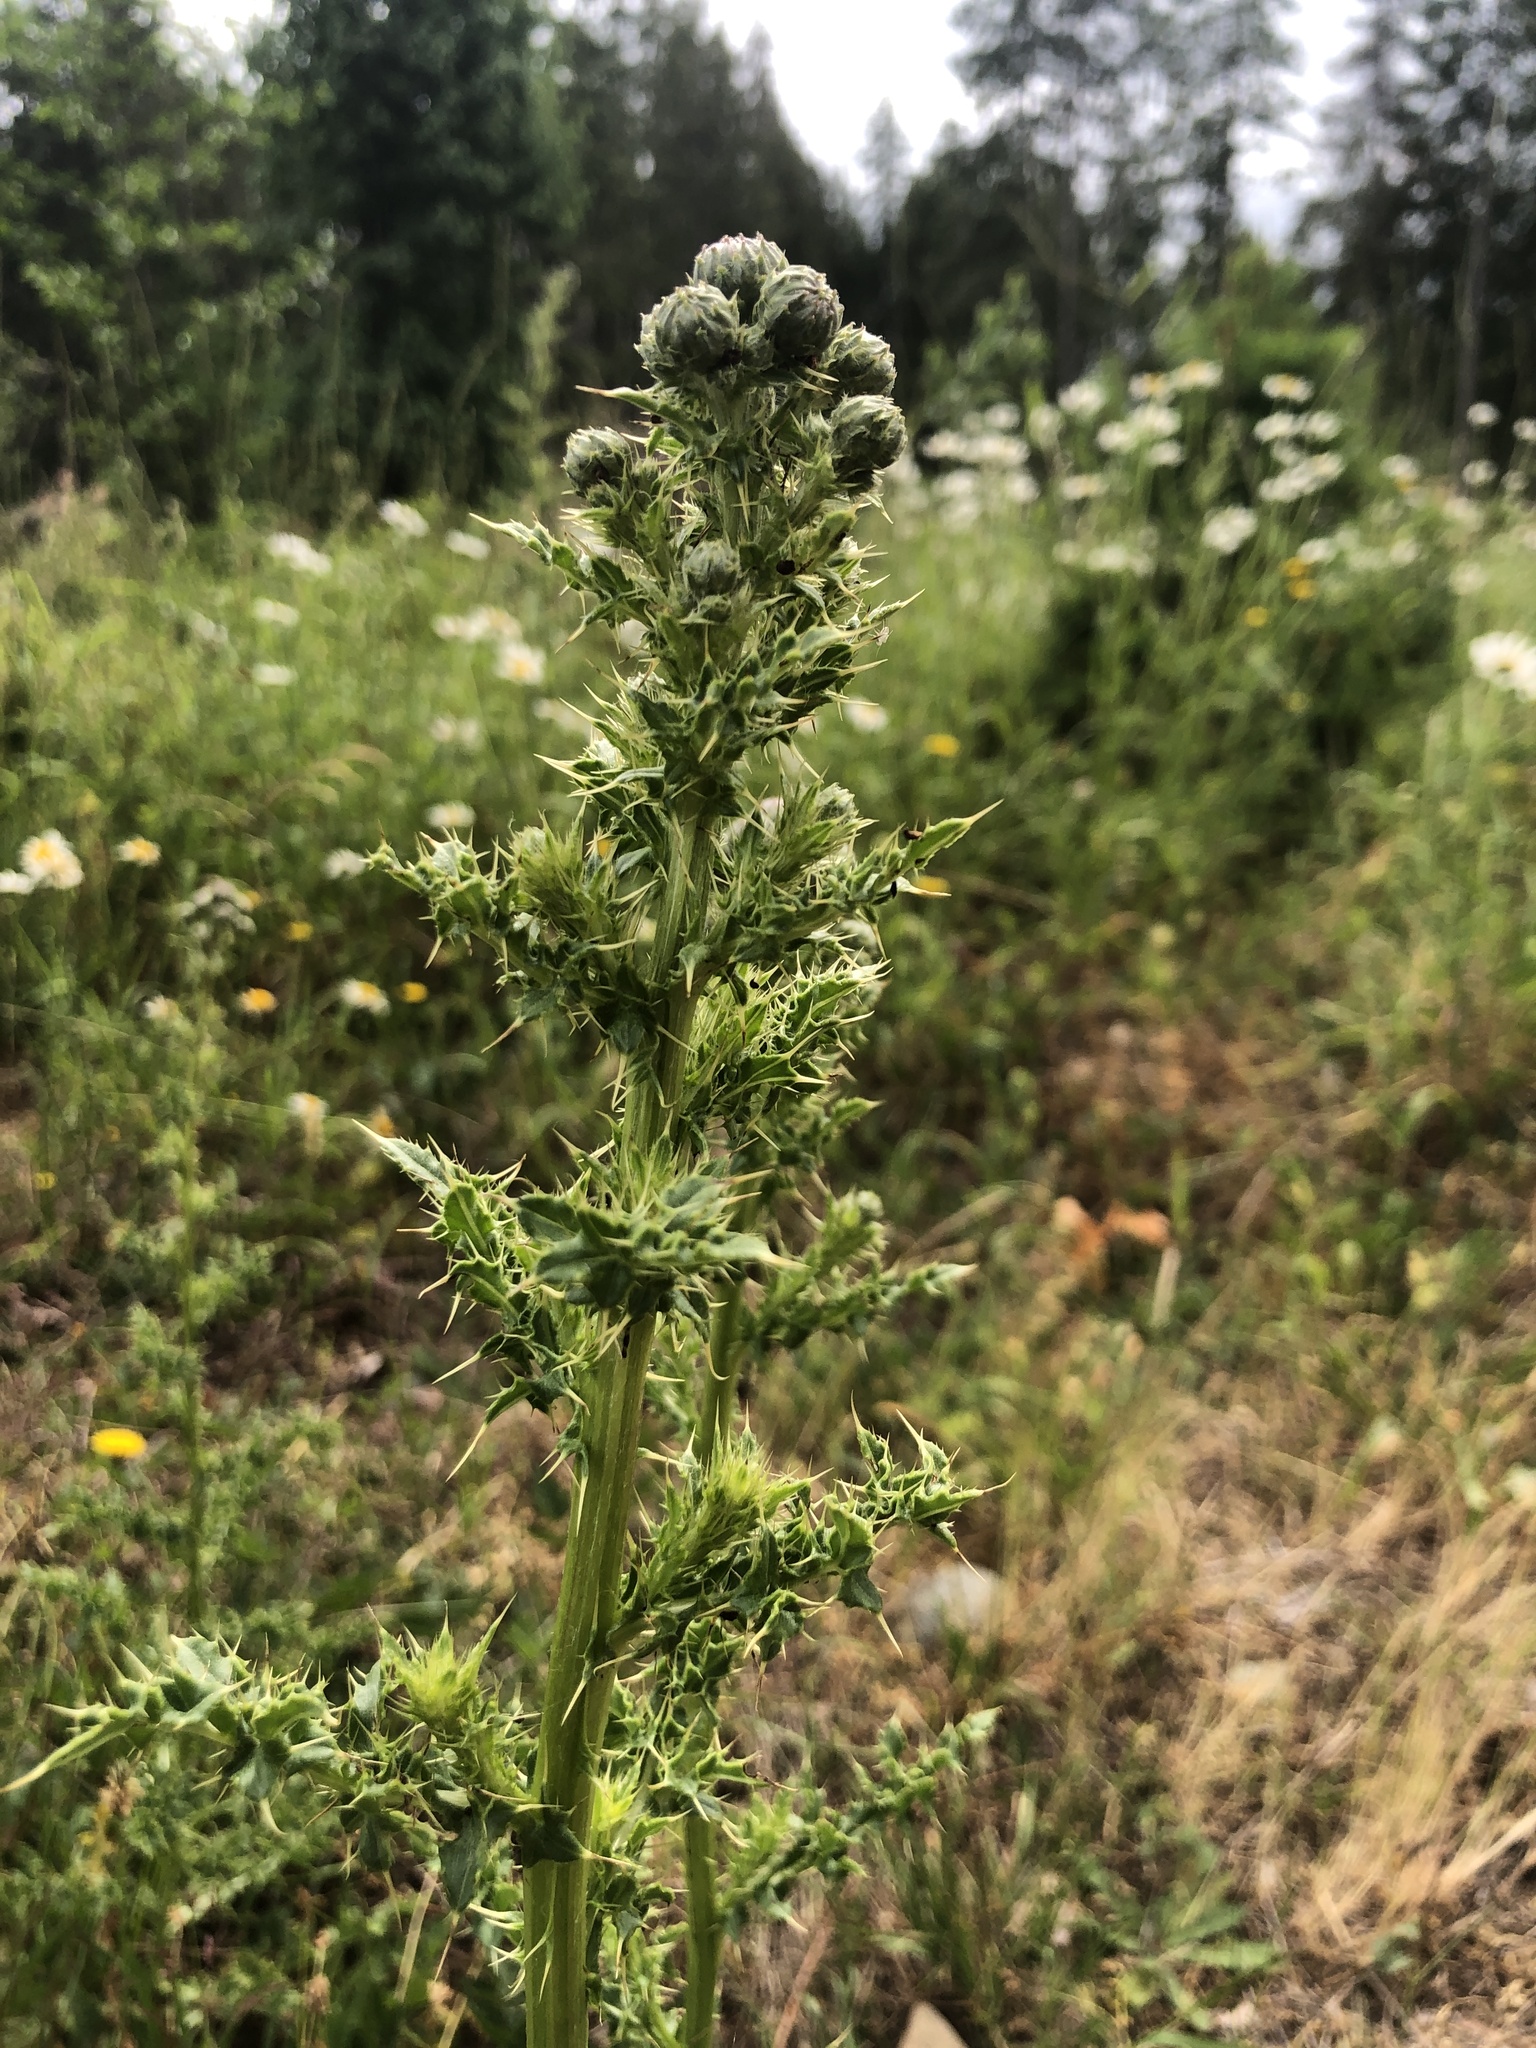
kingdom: Plantae
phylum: Tracheophyta
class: Magnoliopsida
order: Asterales
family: Asteraceae
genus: Cirsium
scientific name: Cirsium arvense
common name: Creeping thistle
